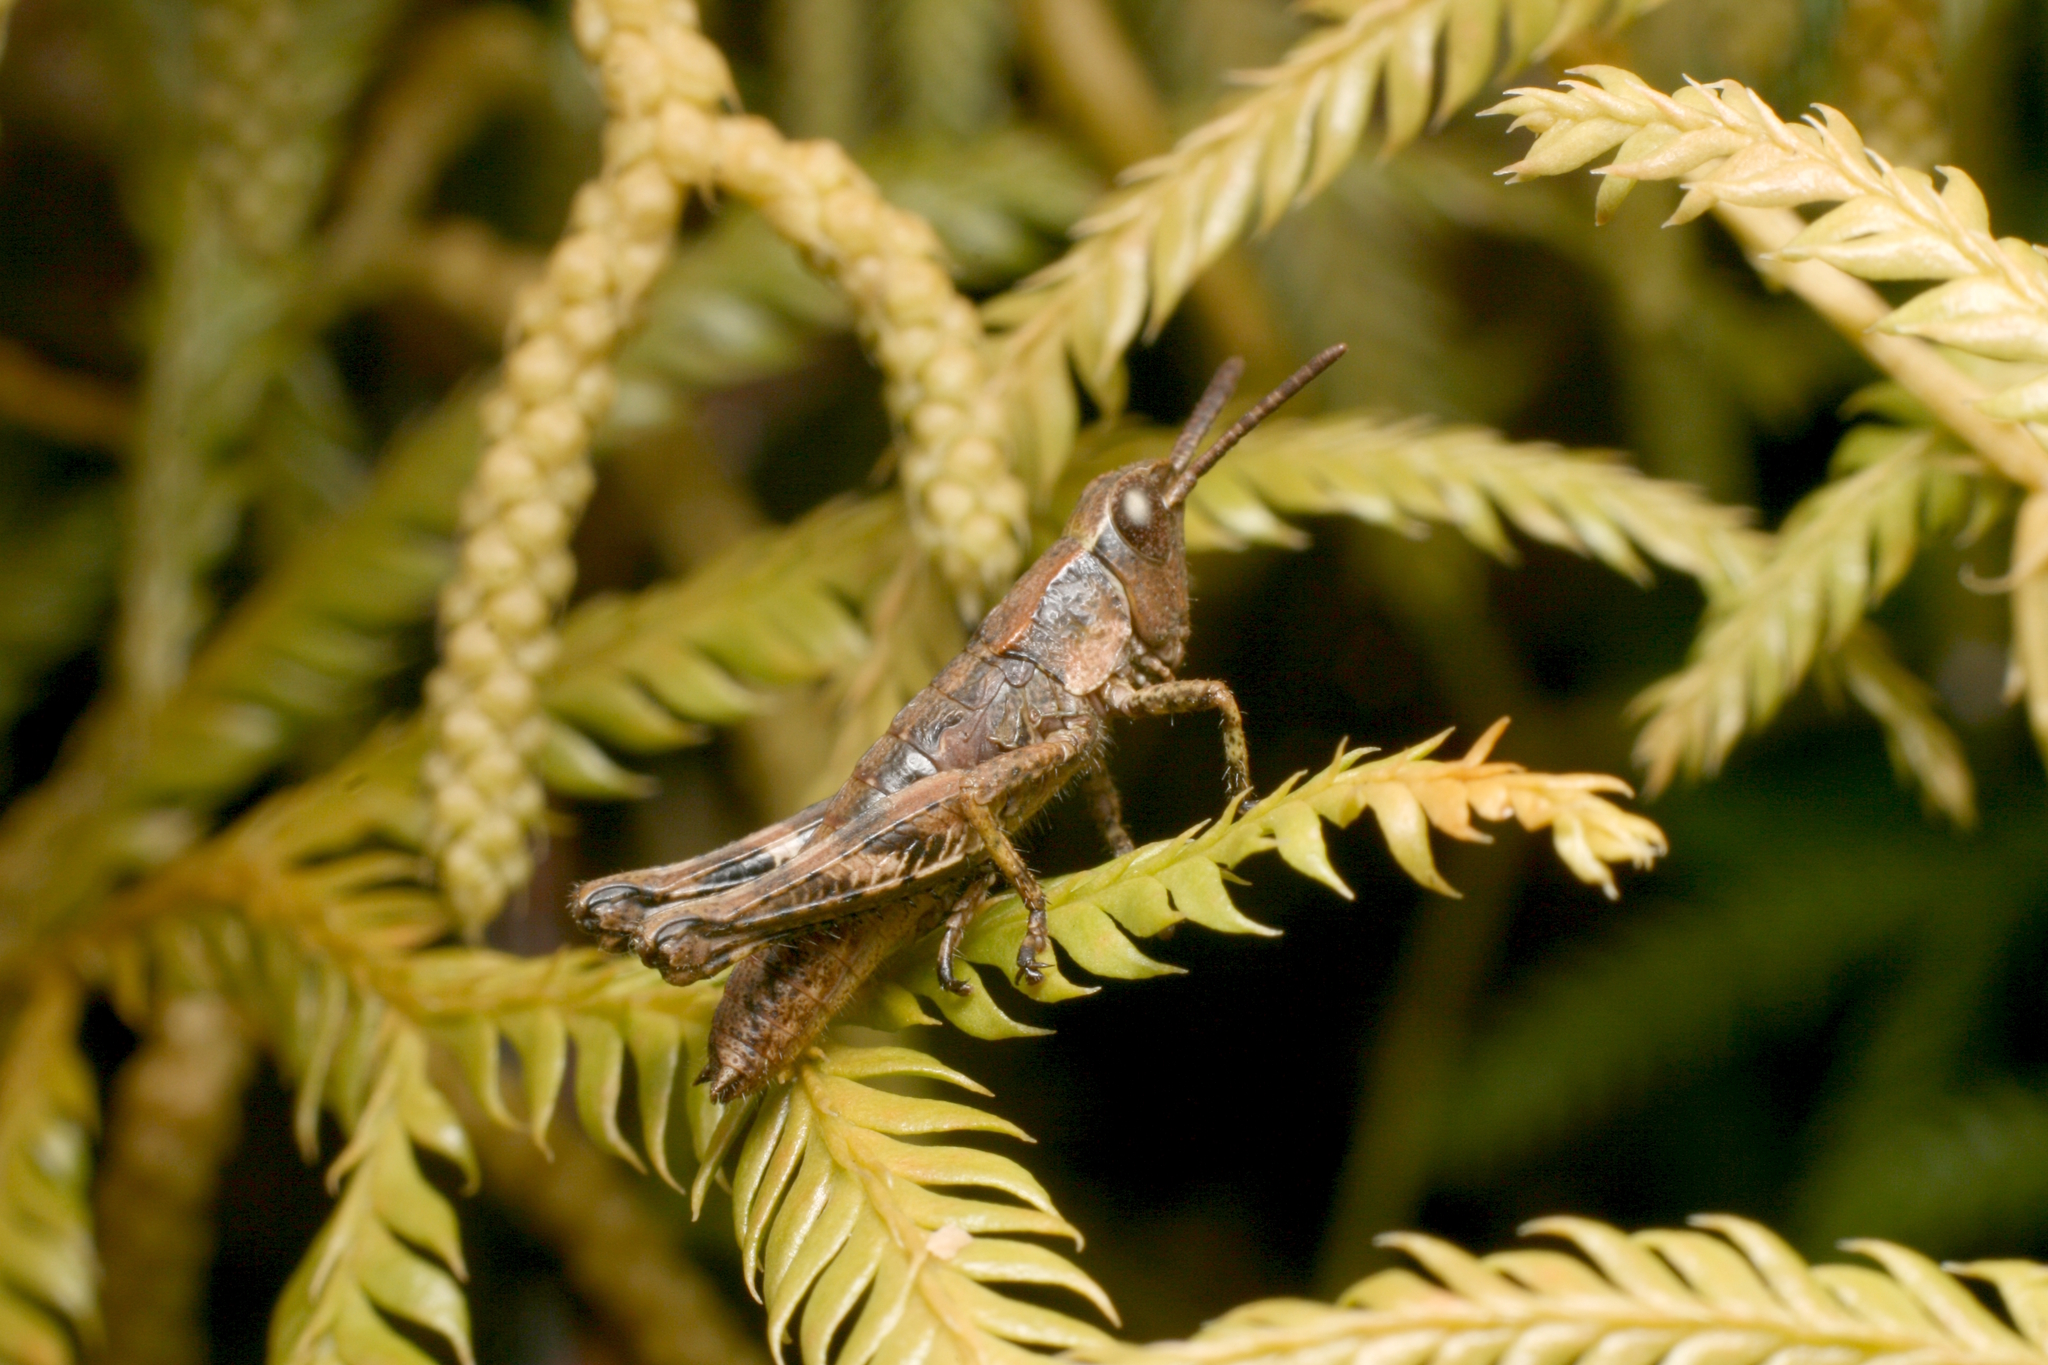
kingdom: Animalia
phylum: Arthropoda
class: Insecta
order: Orthoptera
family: Acrididae
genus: Sigaus
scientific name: Sigaus piliferus
